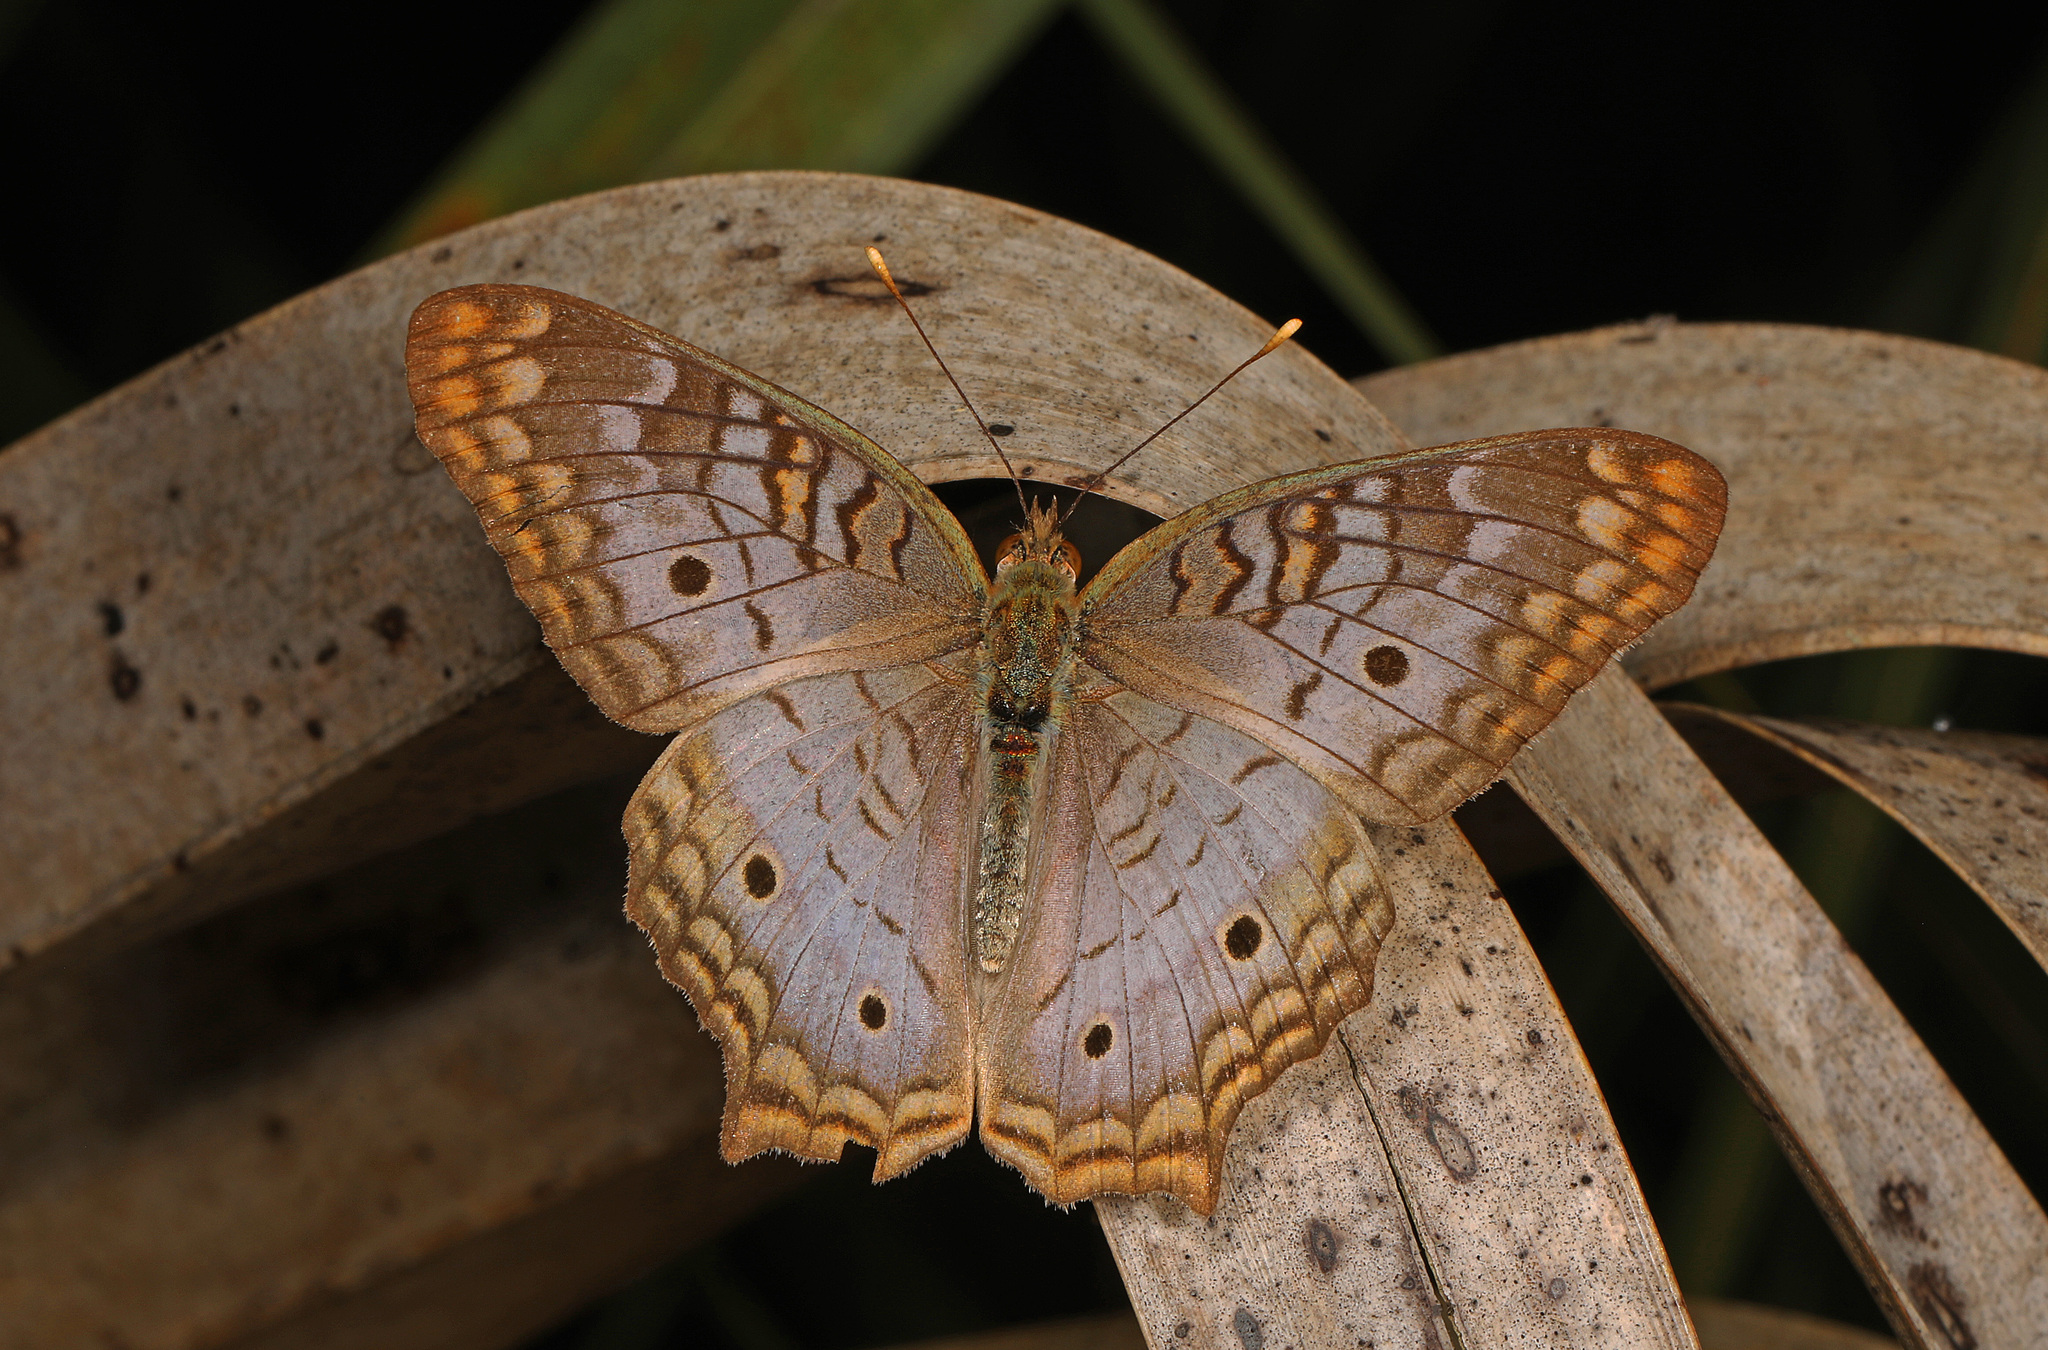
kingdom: Animalia
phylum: Arthropoda
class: Insecta
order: Lepidoptera
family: Nymphalidae
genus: Anartia
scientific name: Anartia jatrophae
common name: White peacock
